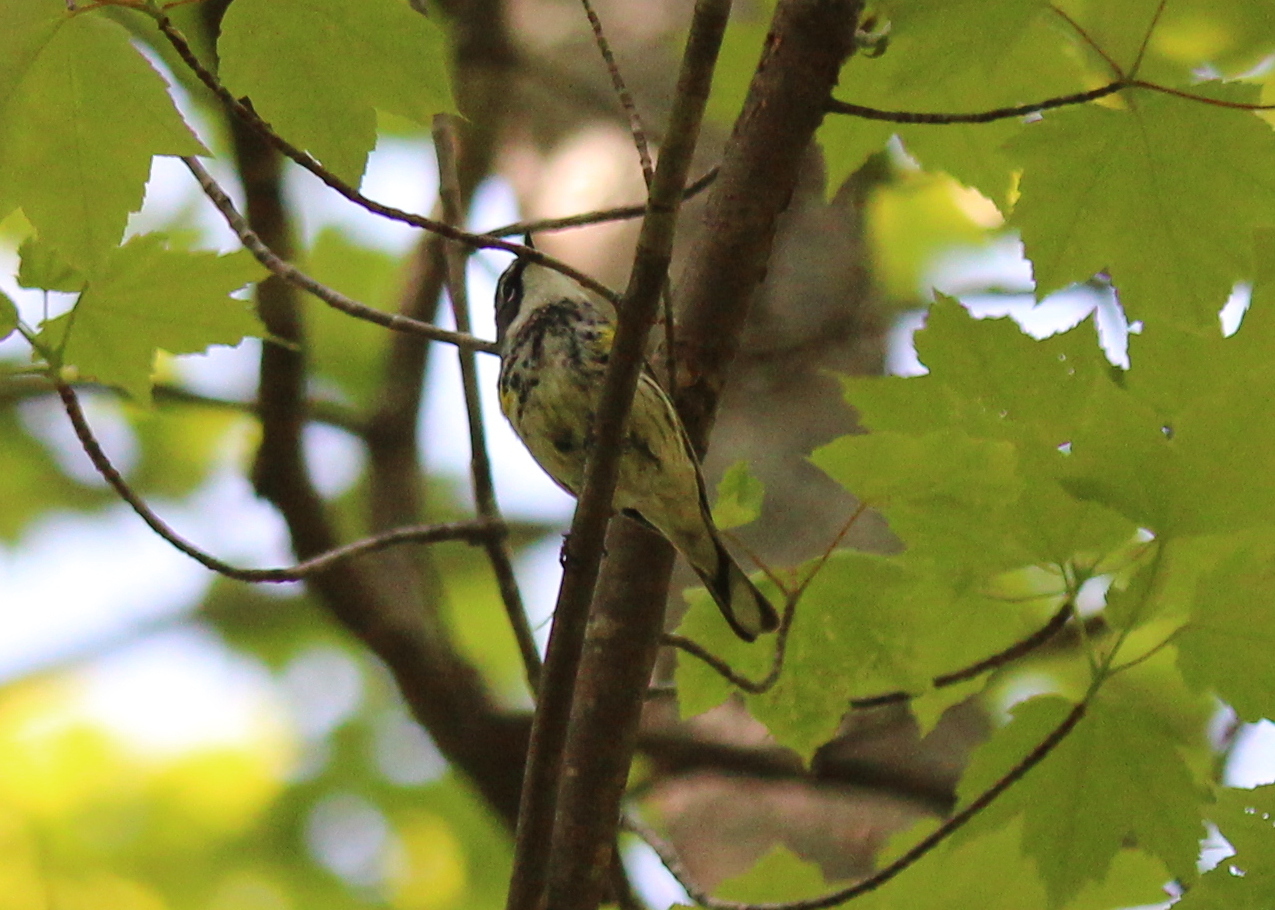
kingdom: Animalia
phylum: Chordata
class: Aves
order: Passeriformes
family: Parulidae
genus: Setophaga
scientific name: Setophaga coronata
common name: Myrtle warbler
